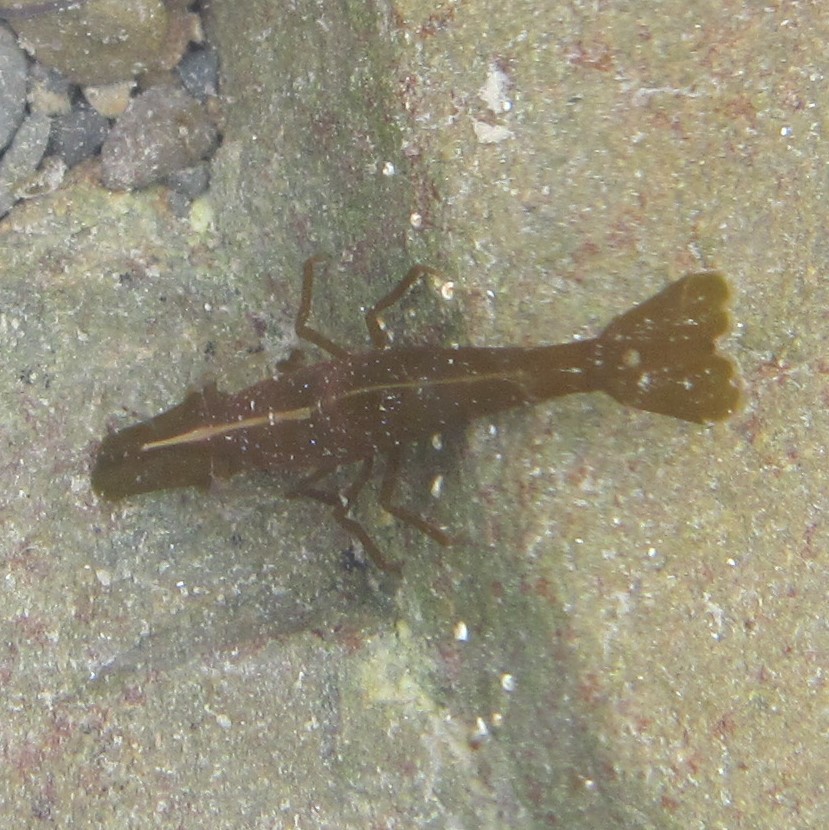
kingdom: Animalia
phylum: Arthropoda
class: Malacostraca
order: Decapoda
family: Hippolytidae
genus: Hippolyte
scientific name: Hippolyte bifidirostris
